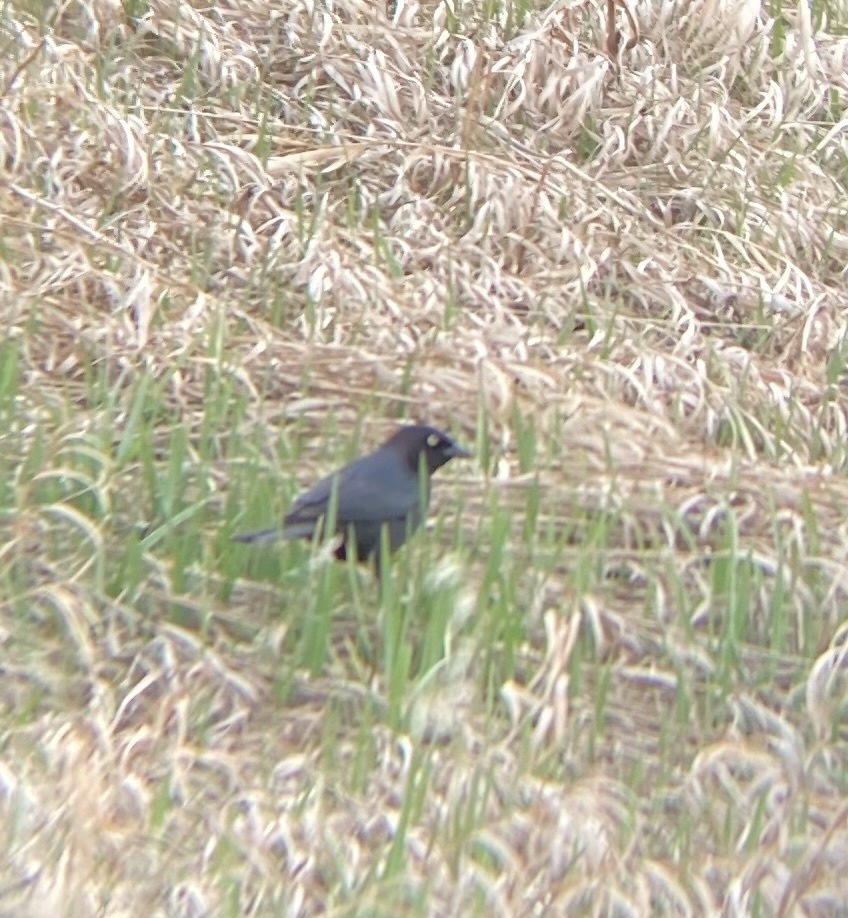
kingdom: Animalia
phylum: Chordata
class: Aves
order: Passeriformes
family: Icteridae
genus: Euphagus
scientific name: Euphagus cyanocephalus
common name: Brewer's blackbird
